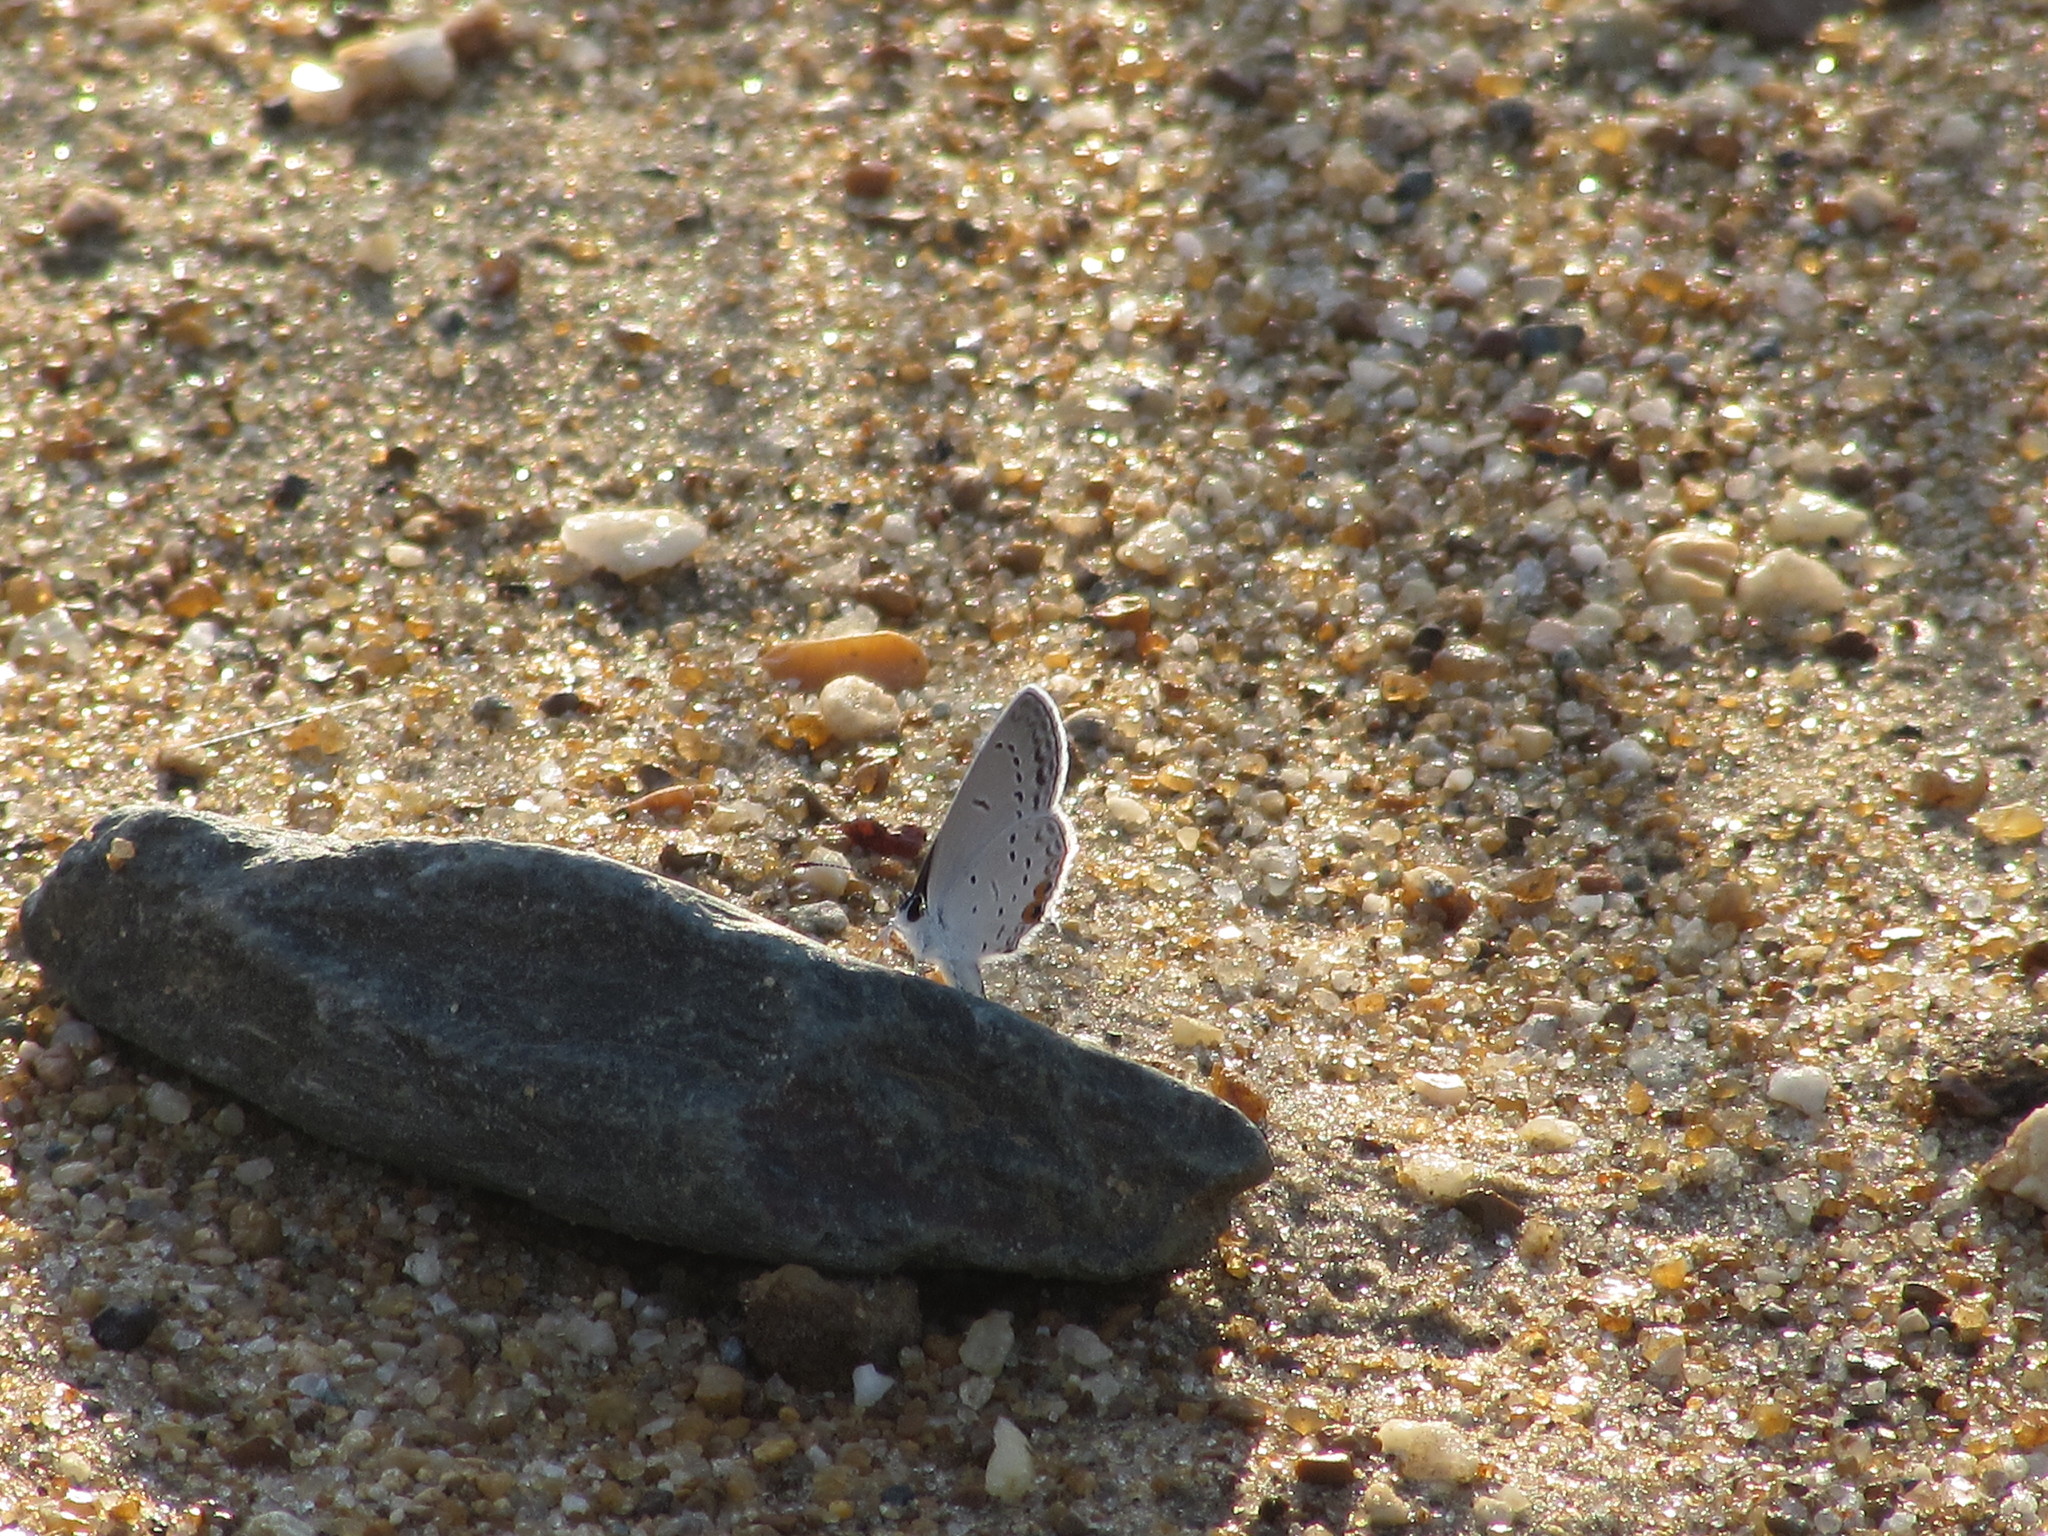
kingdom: Animalia
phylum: Arthropoda
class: Insecta
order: Lepidoptera
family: Lycaenidae
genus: Elkalyce
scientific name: Elkalyce comyntas
